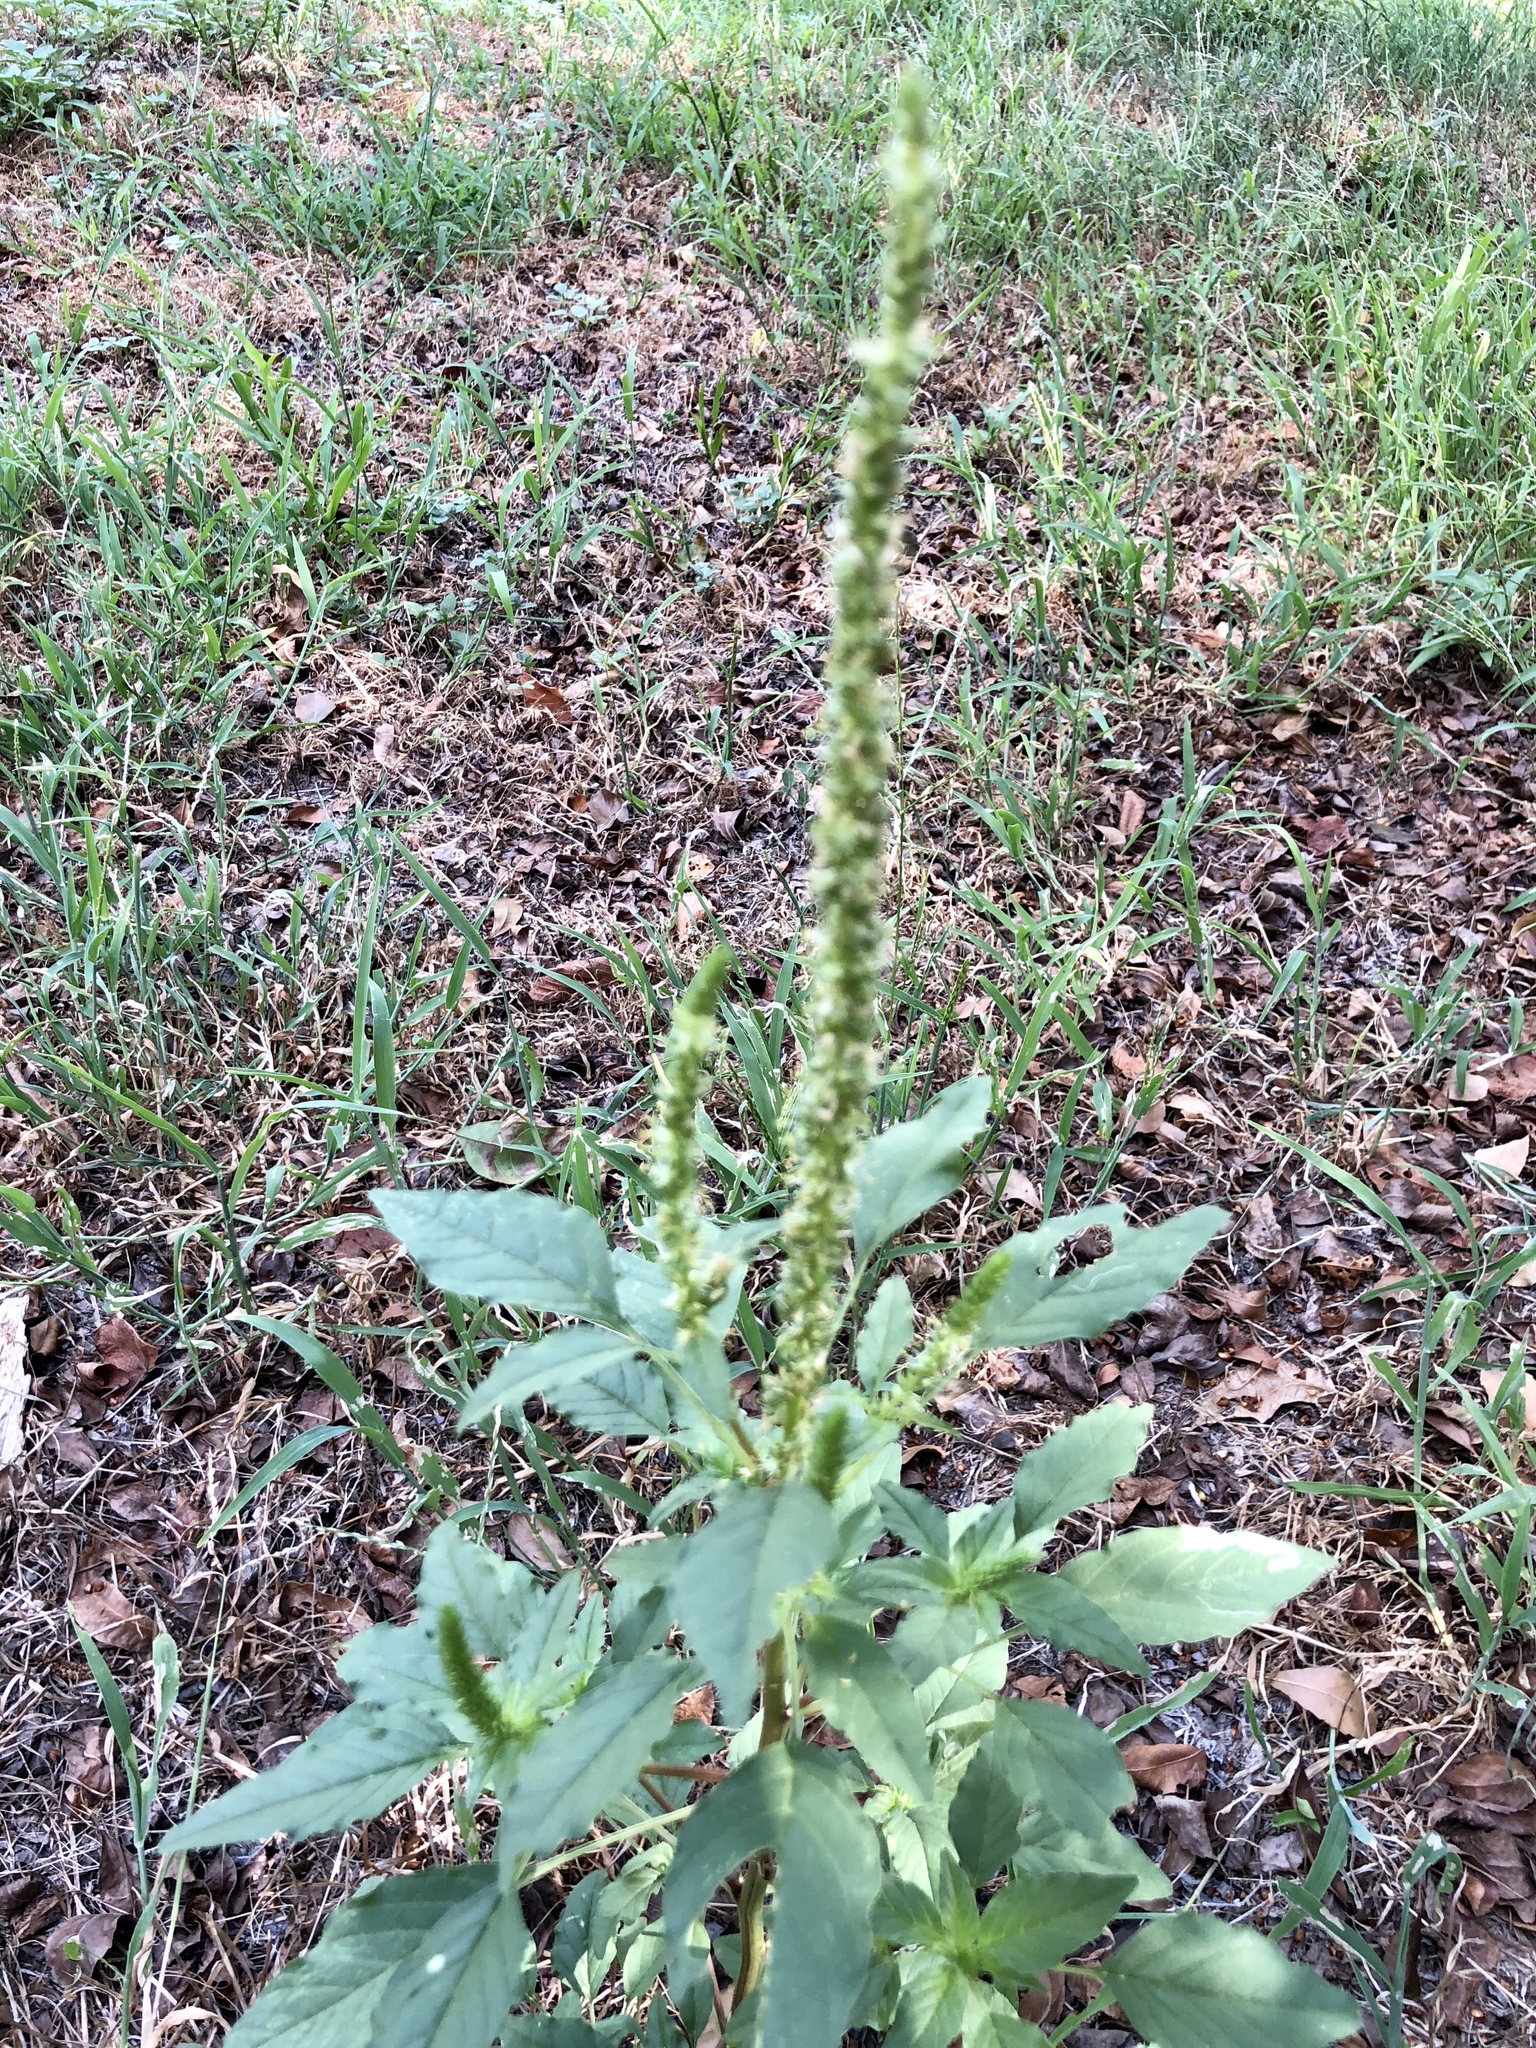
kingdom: Plantae
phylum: Tracheophyta
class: Magnoliopsida
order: Caryophyllales
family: Amaranthaceae
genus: Amaranthus
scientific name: Amaranthus palmeri
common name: Dioecious amaranth
